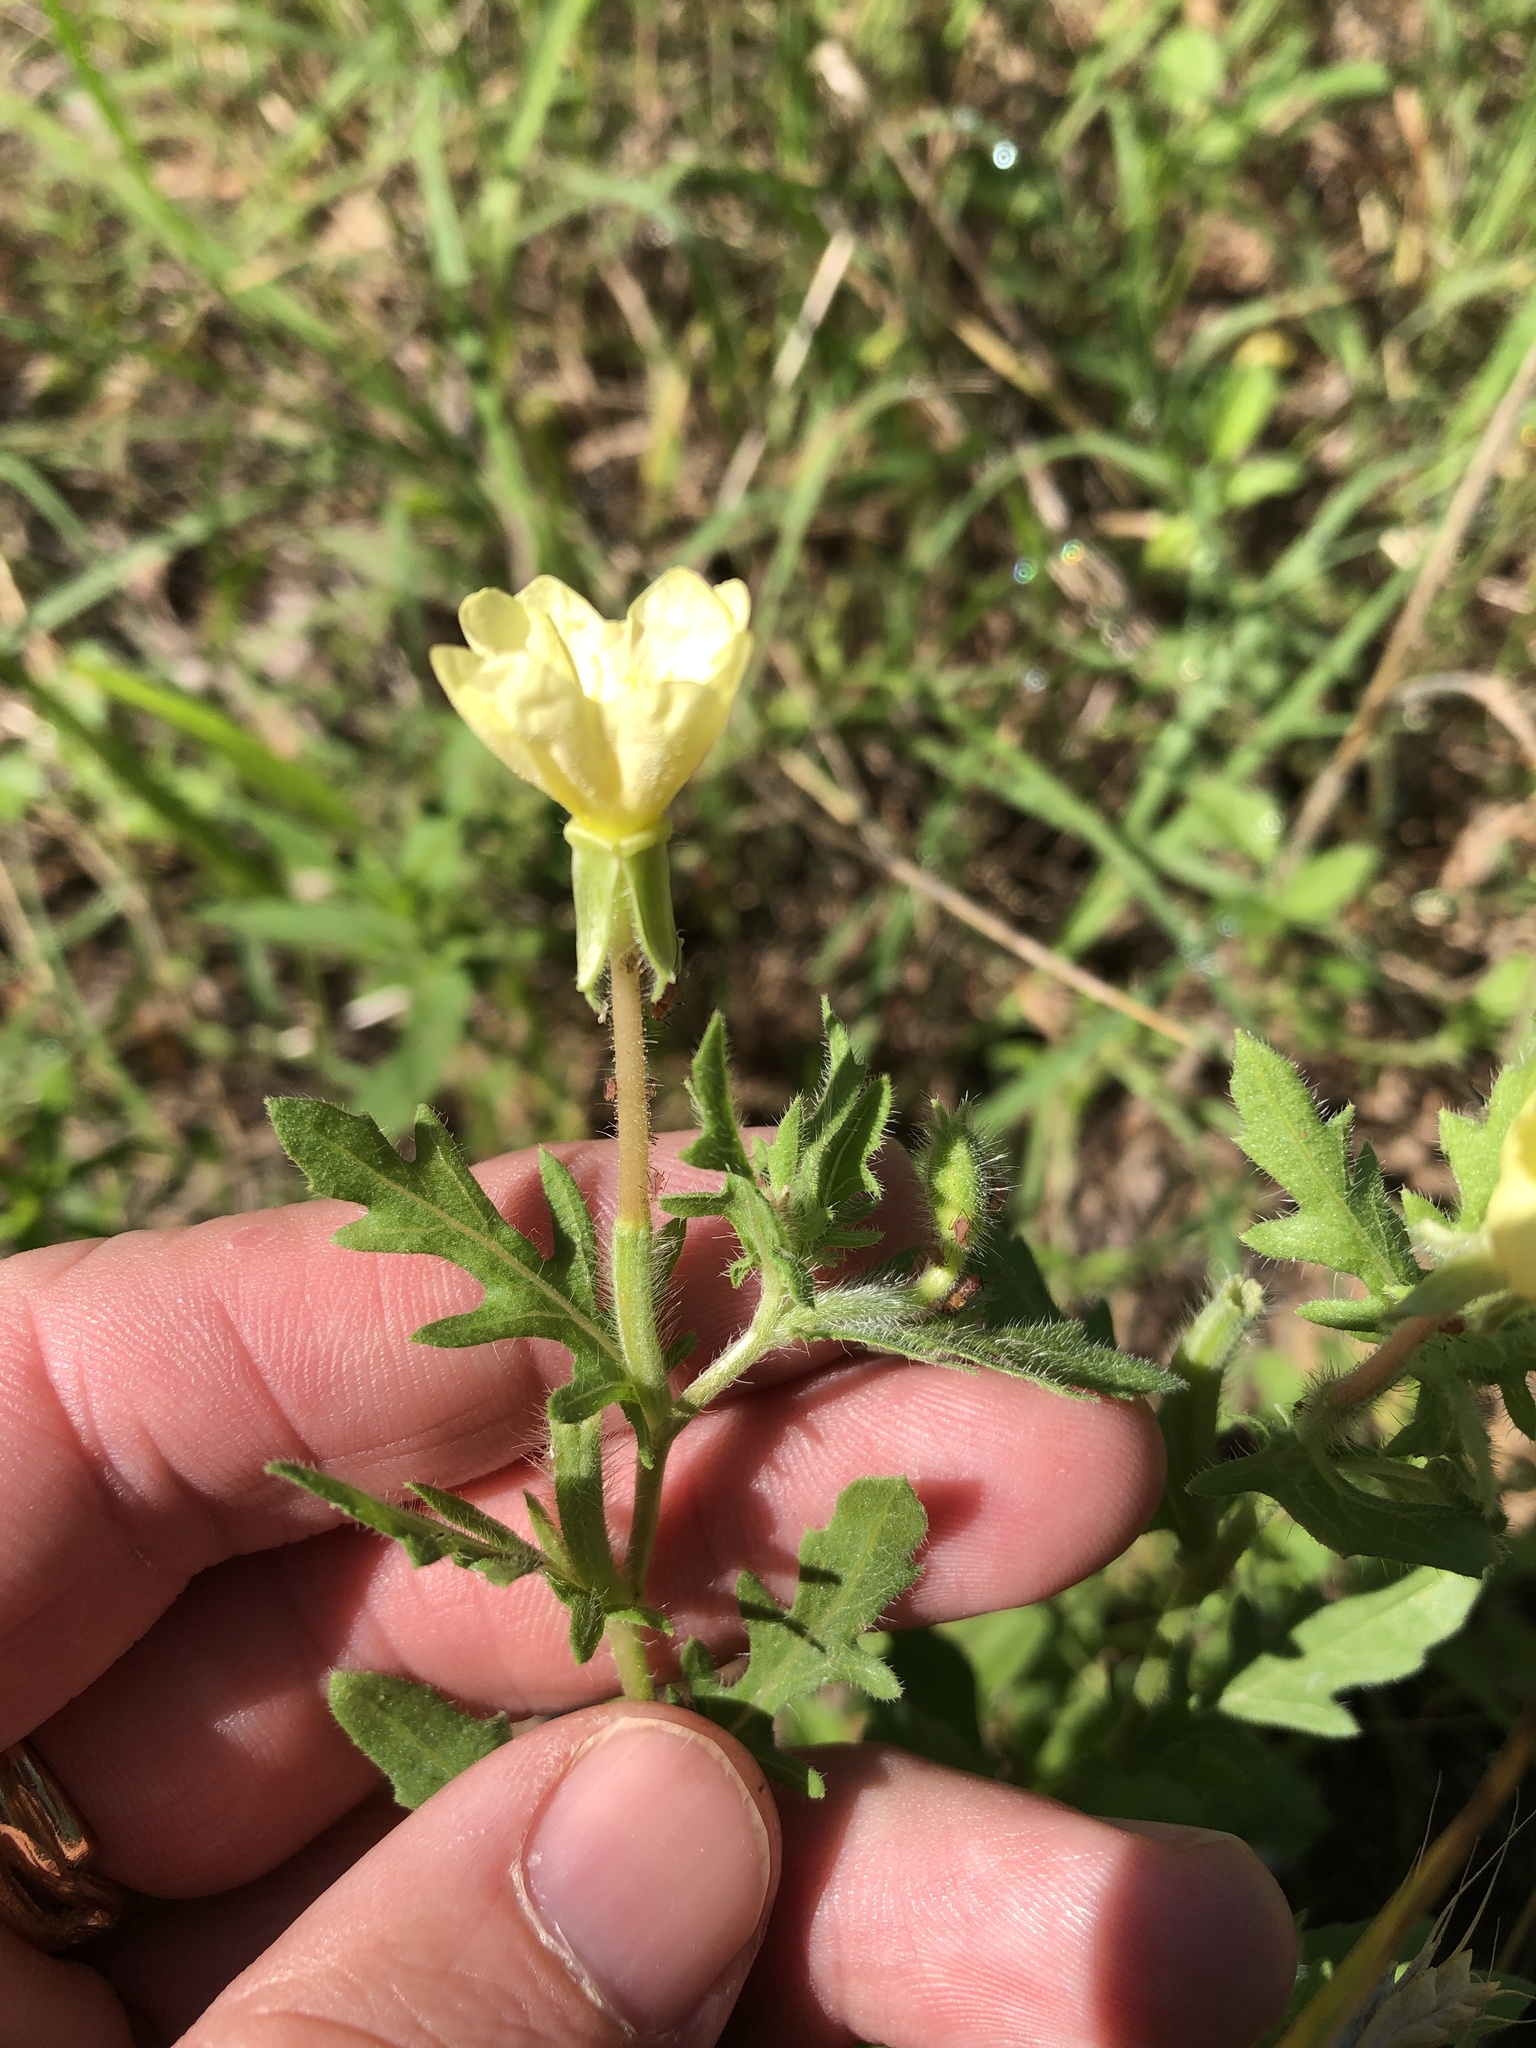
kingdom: Plantae
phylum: Tracheophyta
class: Magnoliopsida
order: Myrtales
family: Onagraceae
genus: Oenothera
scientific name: Oenothera laciniata
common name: Cut-leaved evening-primrose
